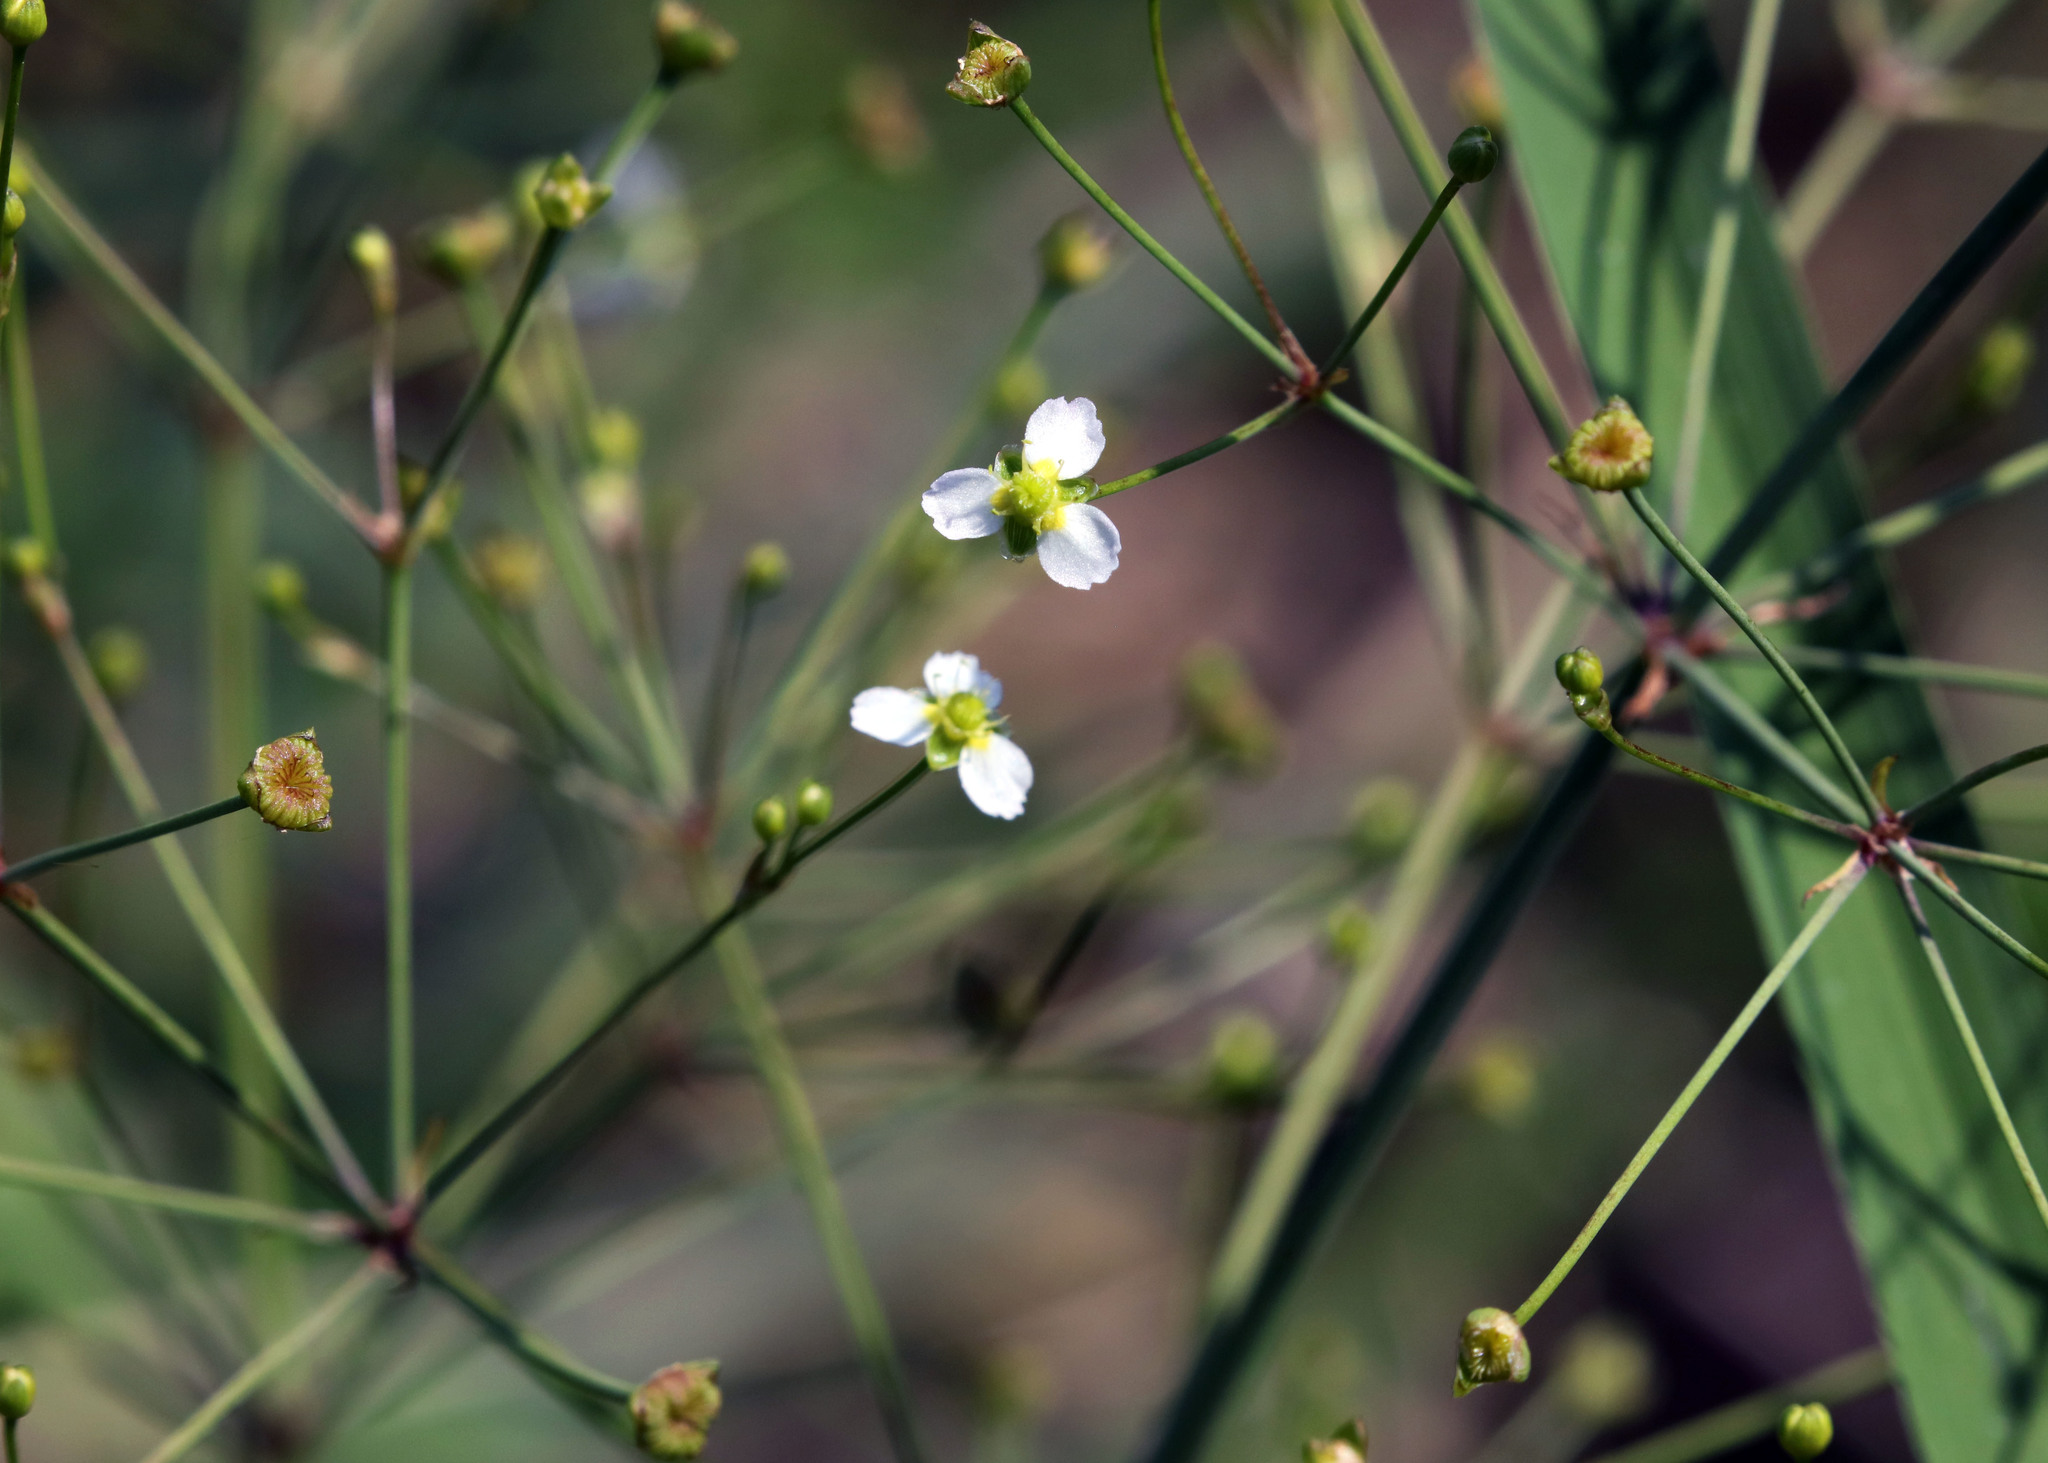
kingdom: Plantae
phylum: Tracheophyta
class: Liliopsida
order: Alismatales
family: Alismataceae
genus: Alisma
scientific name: Alisma triviale
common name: Northern water-plantain
